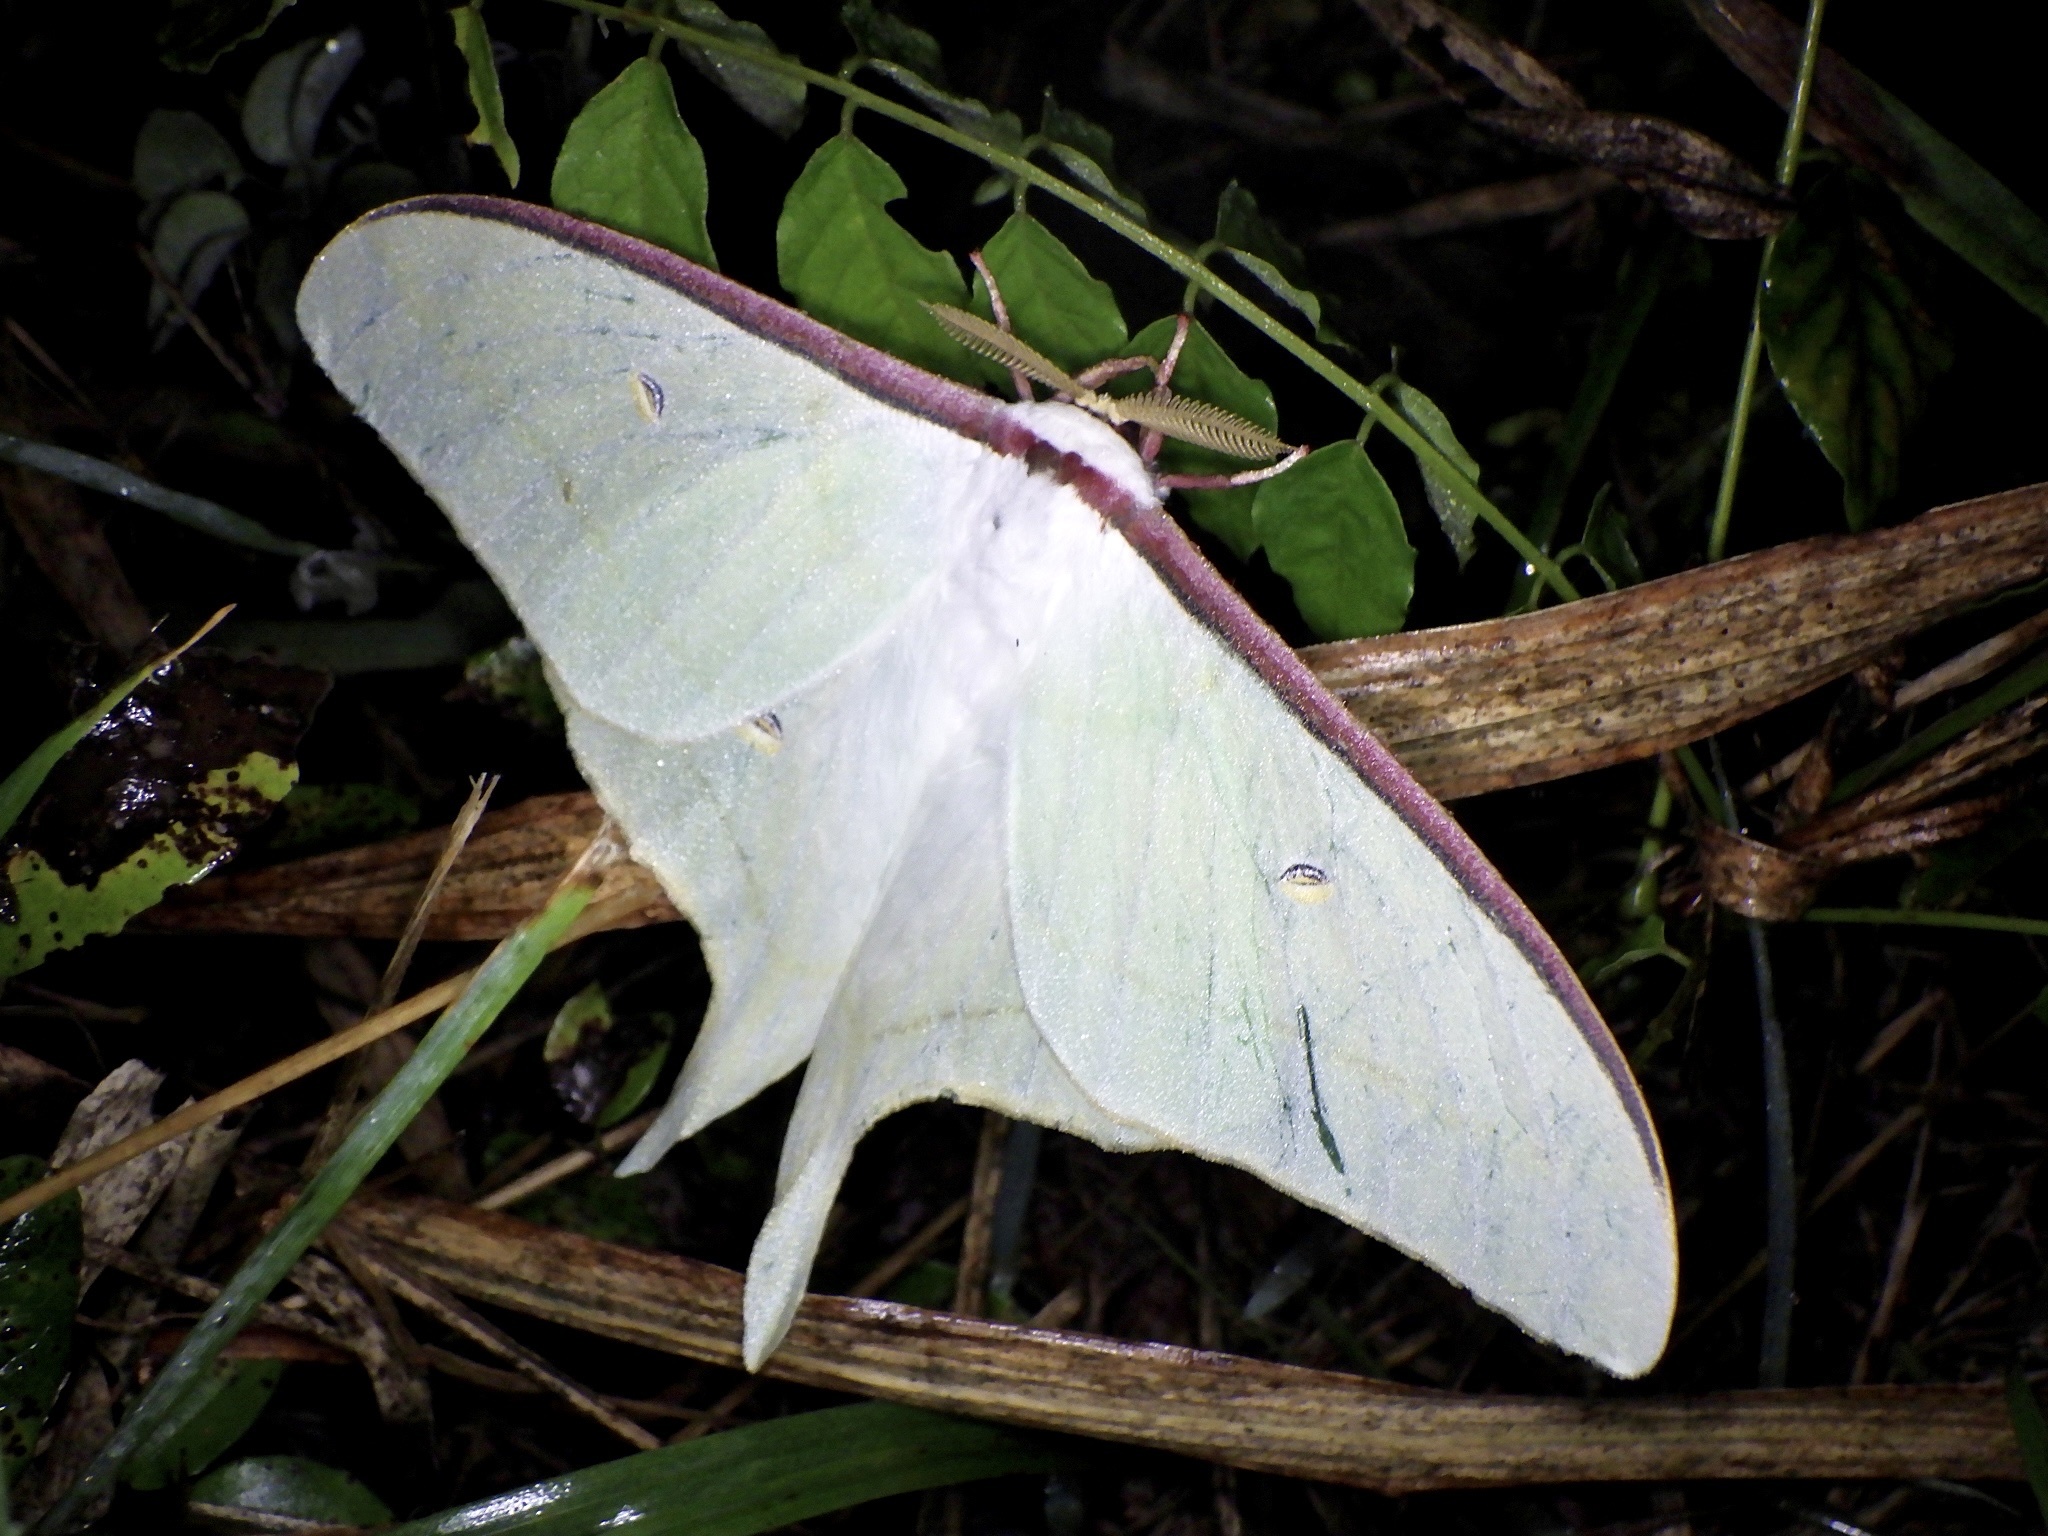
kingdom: Animalia
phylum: Arthropoda
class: Insecta
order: Lepidoptera
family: Saturniidae
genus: Actias
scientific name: Actias aliena
